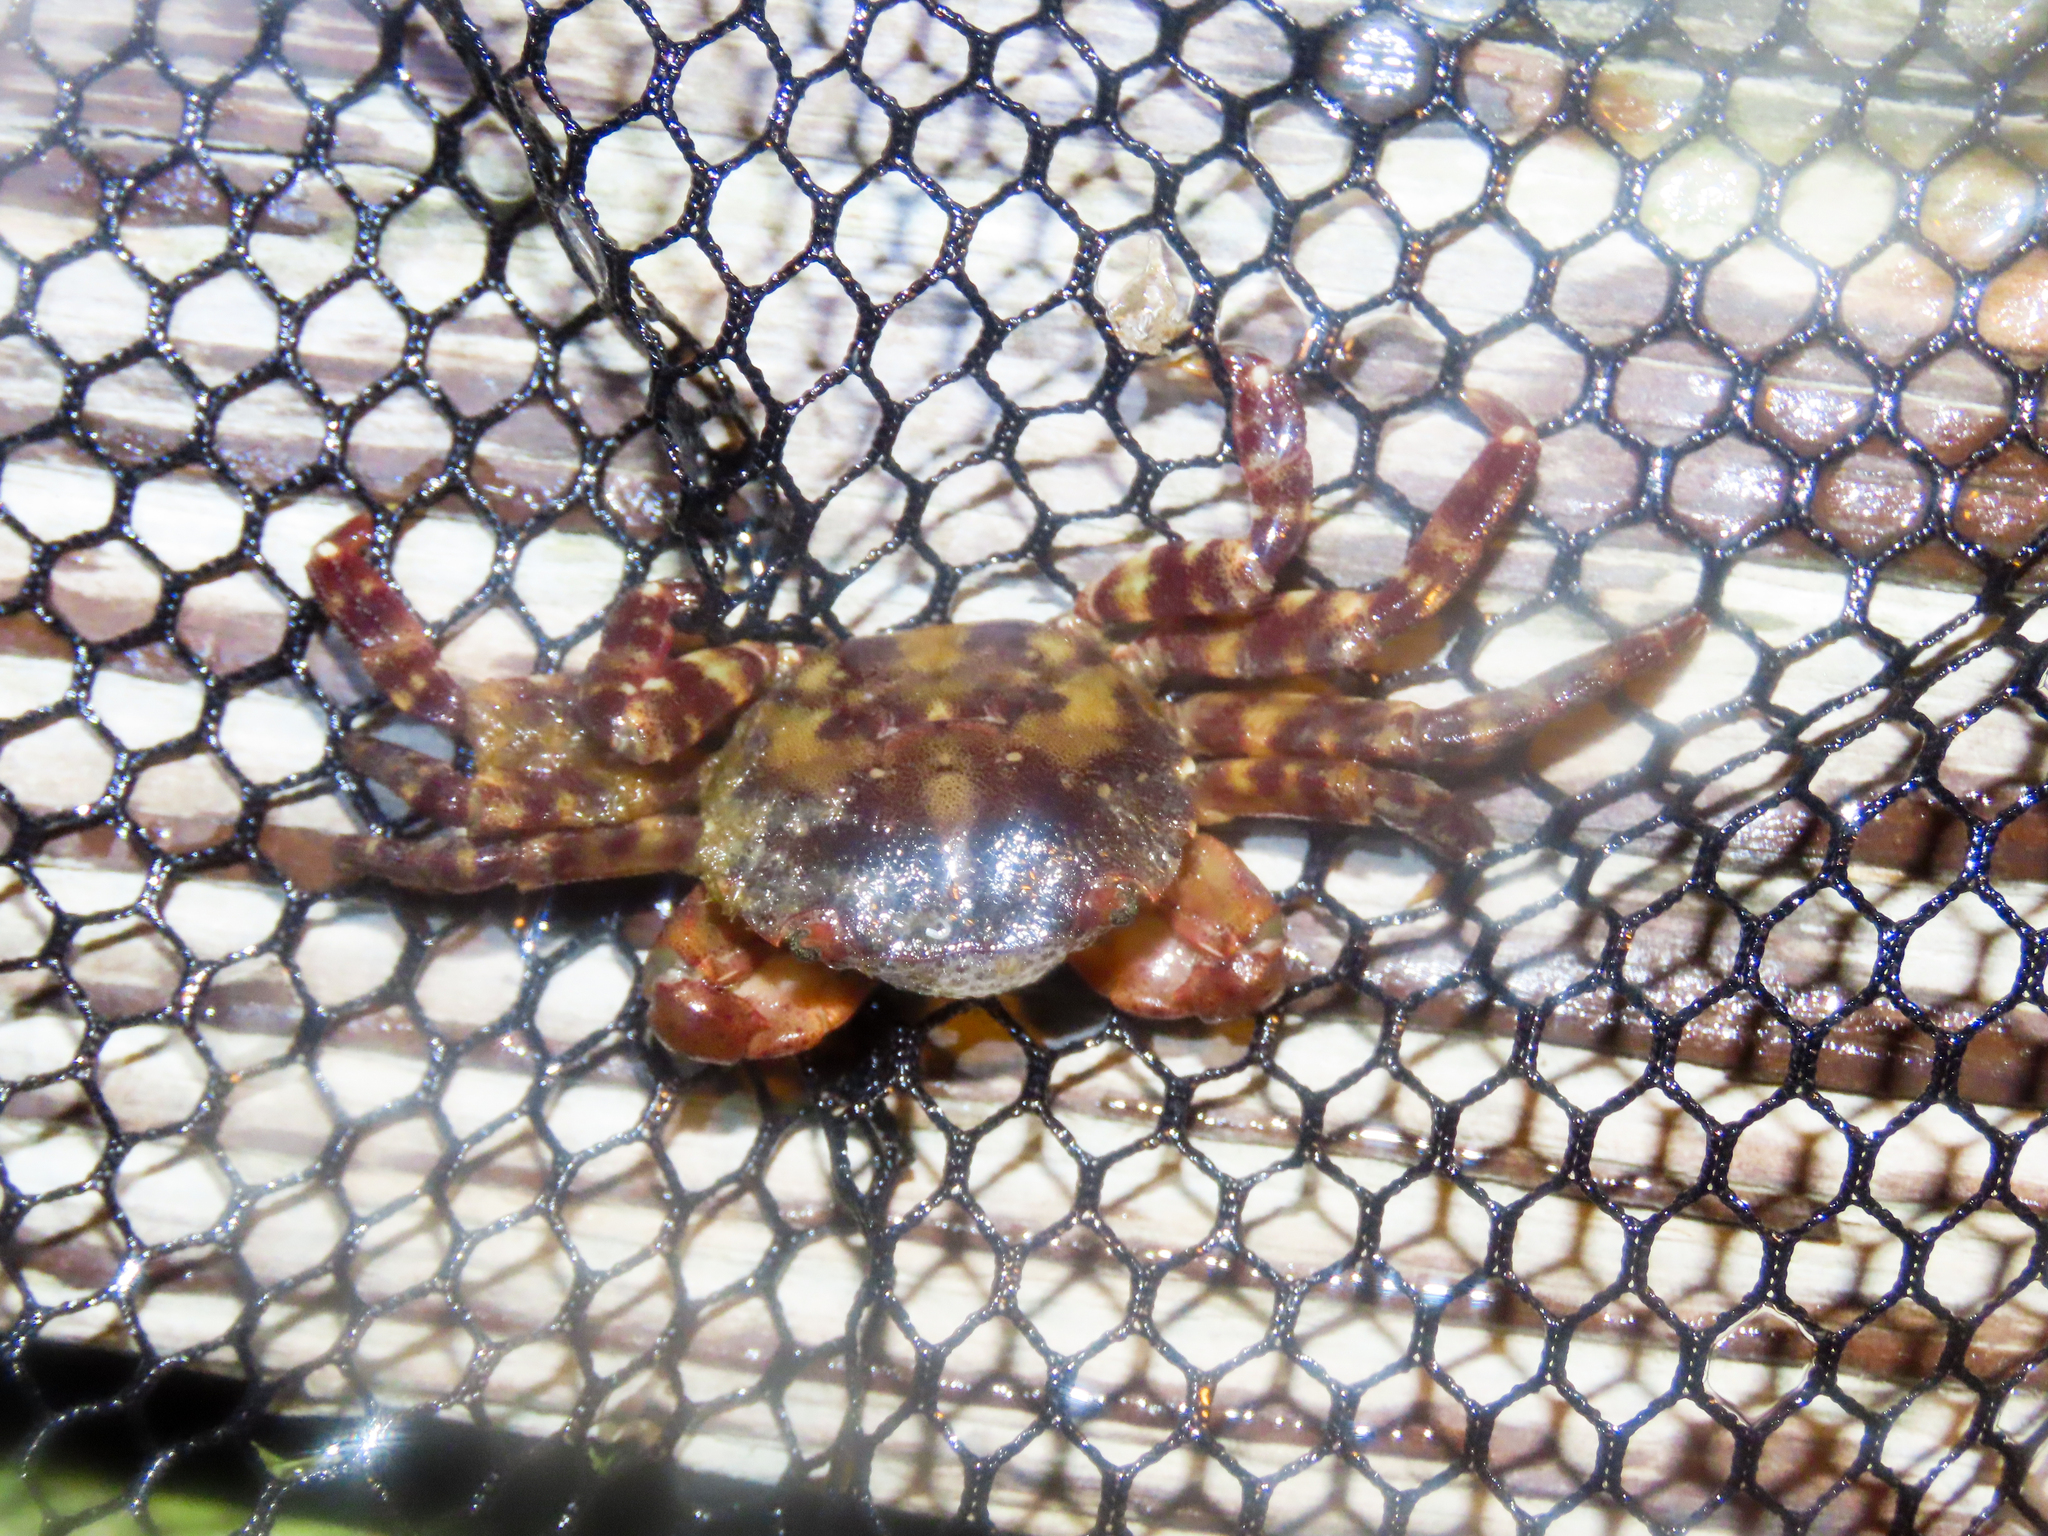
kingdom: Animalia
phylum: Arthropoda
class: Malacostraca
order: Decapoda
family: Varunidae
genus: Hemigrapsus
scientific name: Hemigrapsus sanguineus
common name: Asian shore crab
